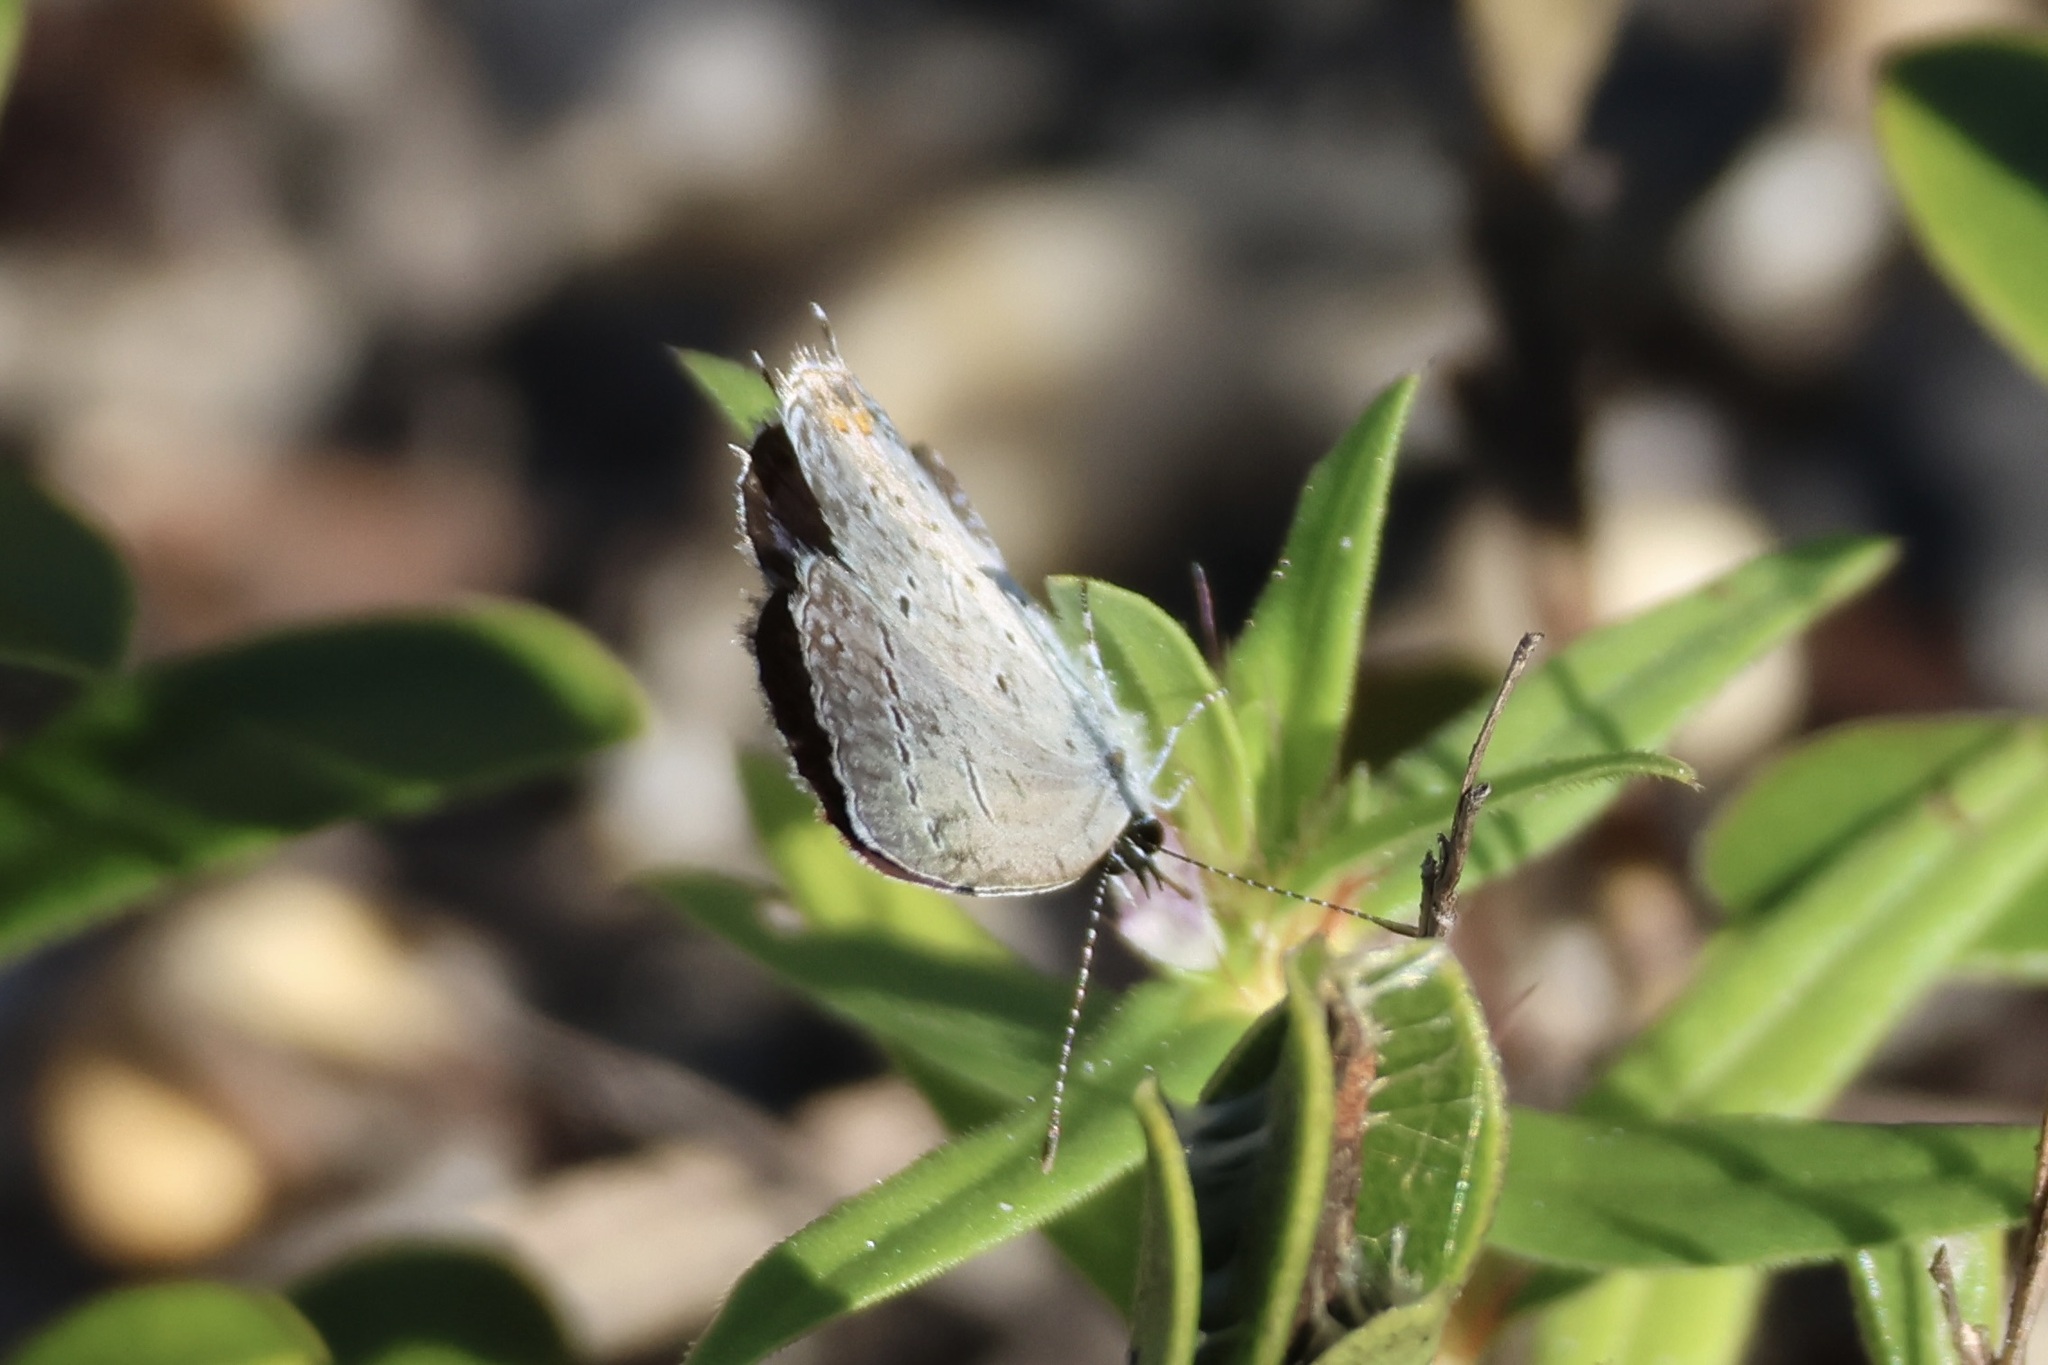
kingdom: Animalia
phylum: Arthropoda
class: Insecta
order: Lepidoptera
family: Lycaenidae
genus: Elkalyce
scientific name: Elkalyce comyntas
